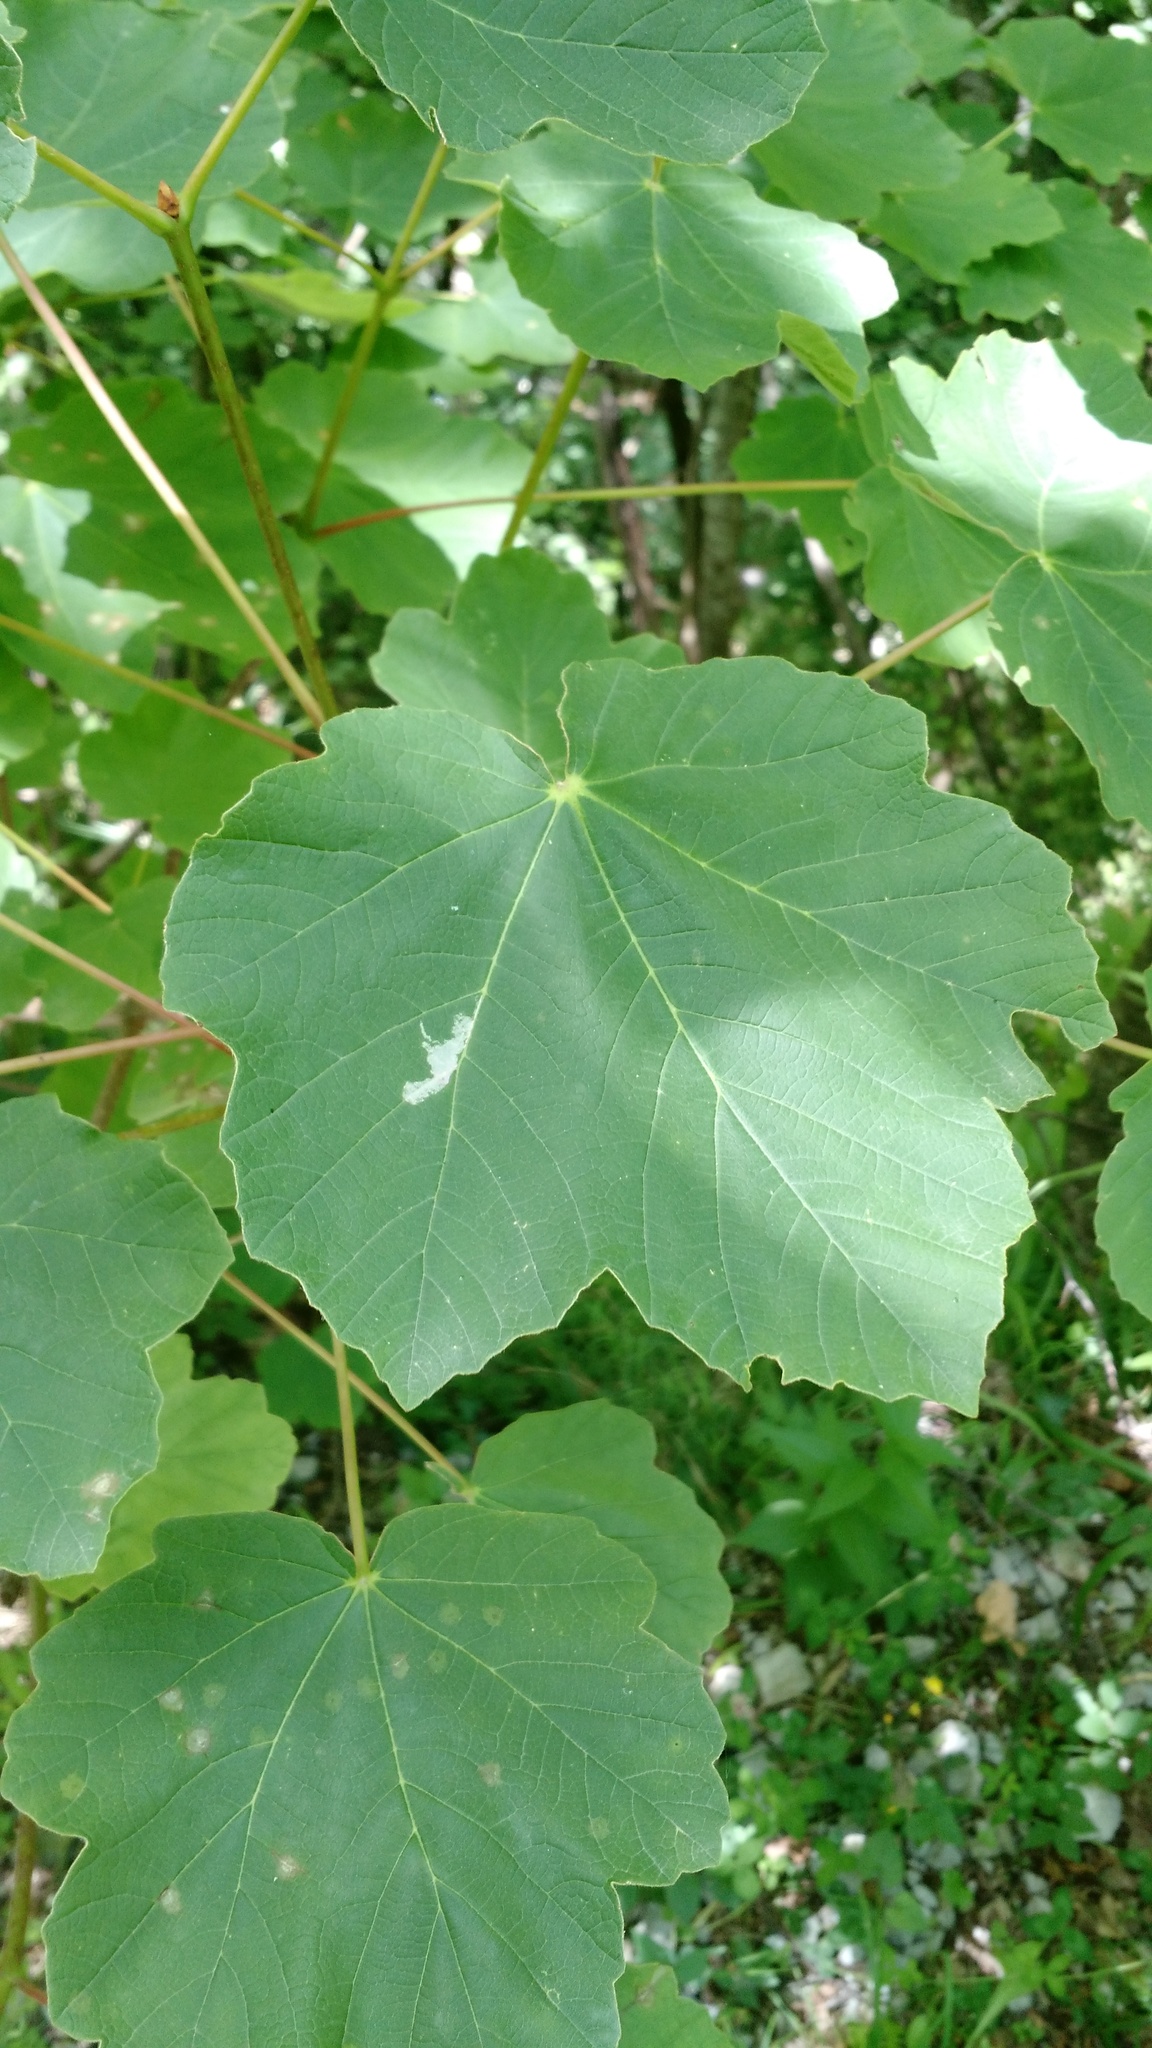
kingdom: Plantae
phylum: Tracheophyta
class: Magnoliopsida
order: Sapindales
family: Sapindaceae
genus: Acer
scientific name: Acer obtusatum
